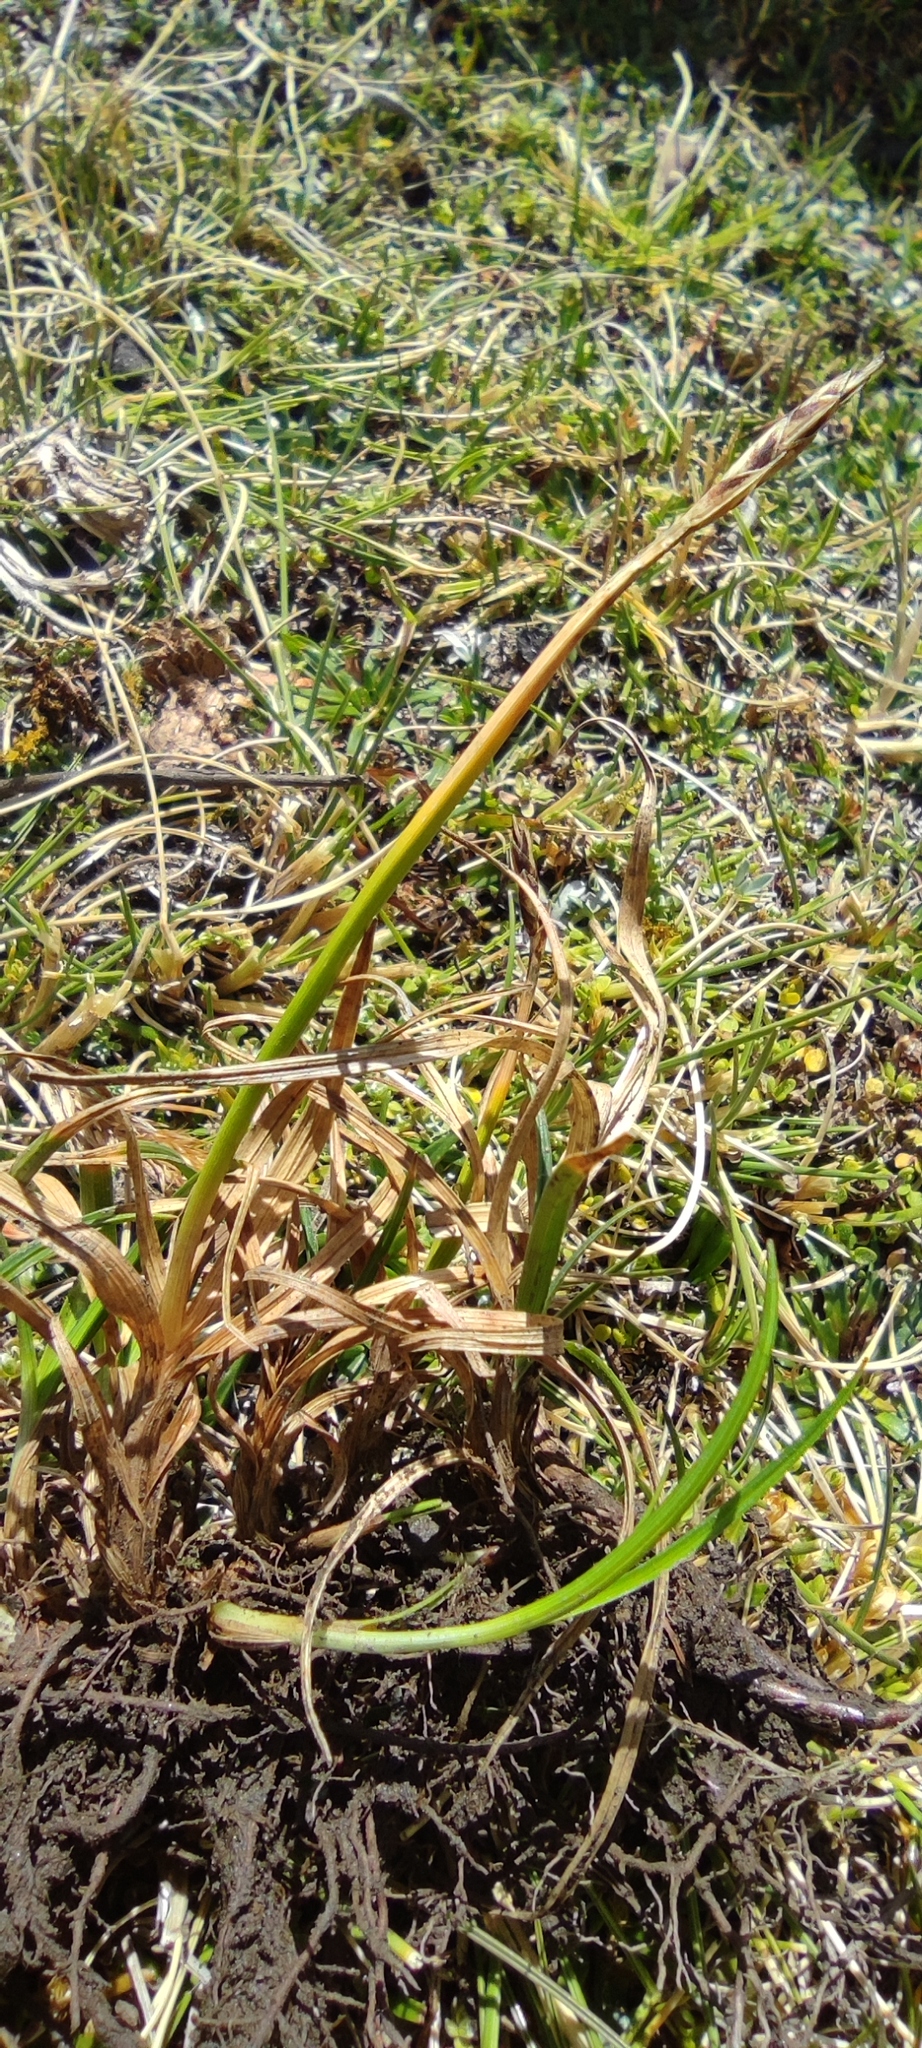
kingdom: Plantae
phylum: Tracheophyta
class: Liliopsida
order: Poales
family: Cyperaceae
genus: Carex
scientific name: Carex meridensis
